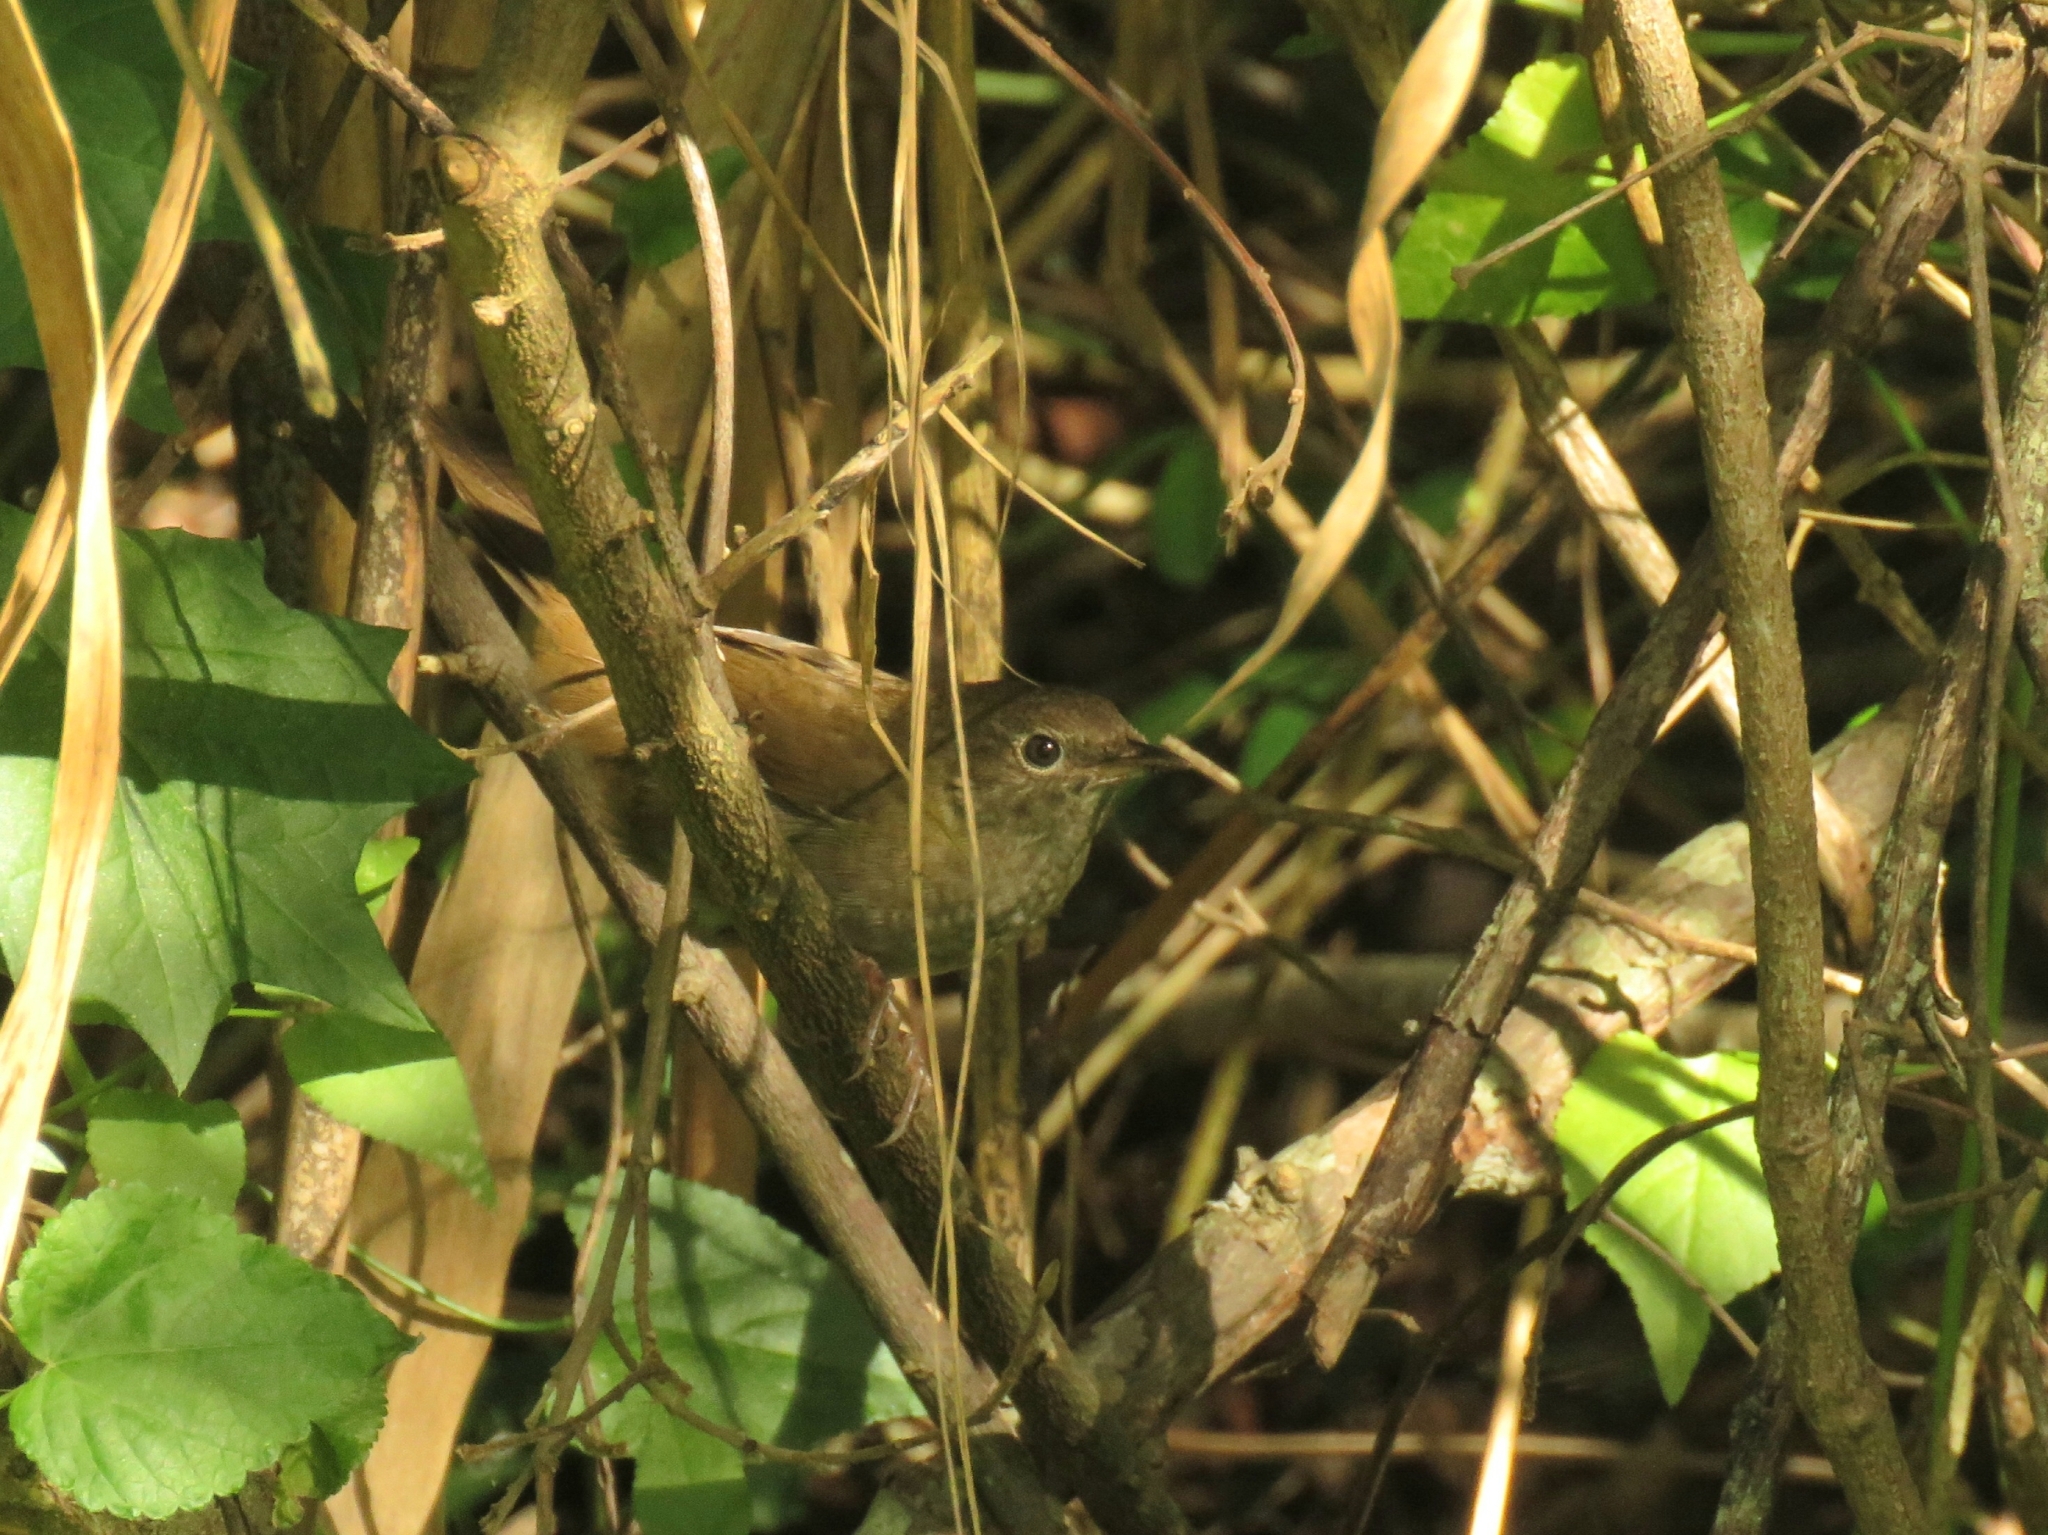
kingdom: Animalia
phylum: Chordata
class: Aves
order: Passeriformes
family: Locustellidae
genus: Bradypterus
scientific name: Bradypterus sylvaticus
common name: Knysna warbler
